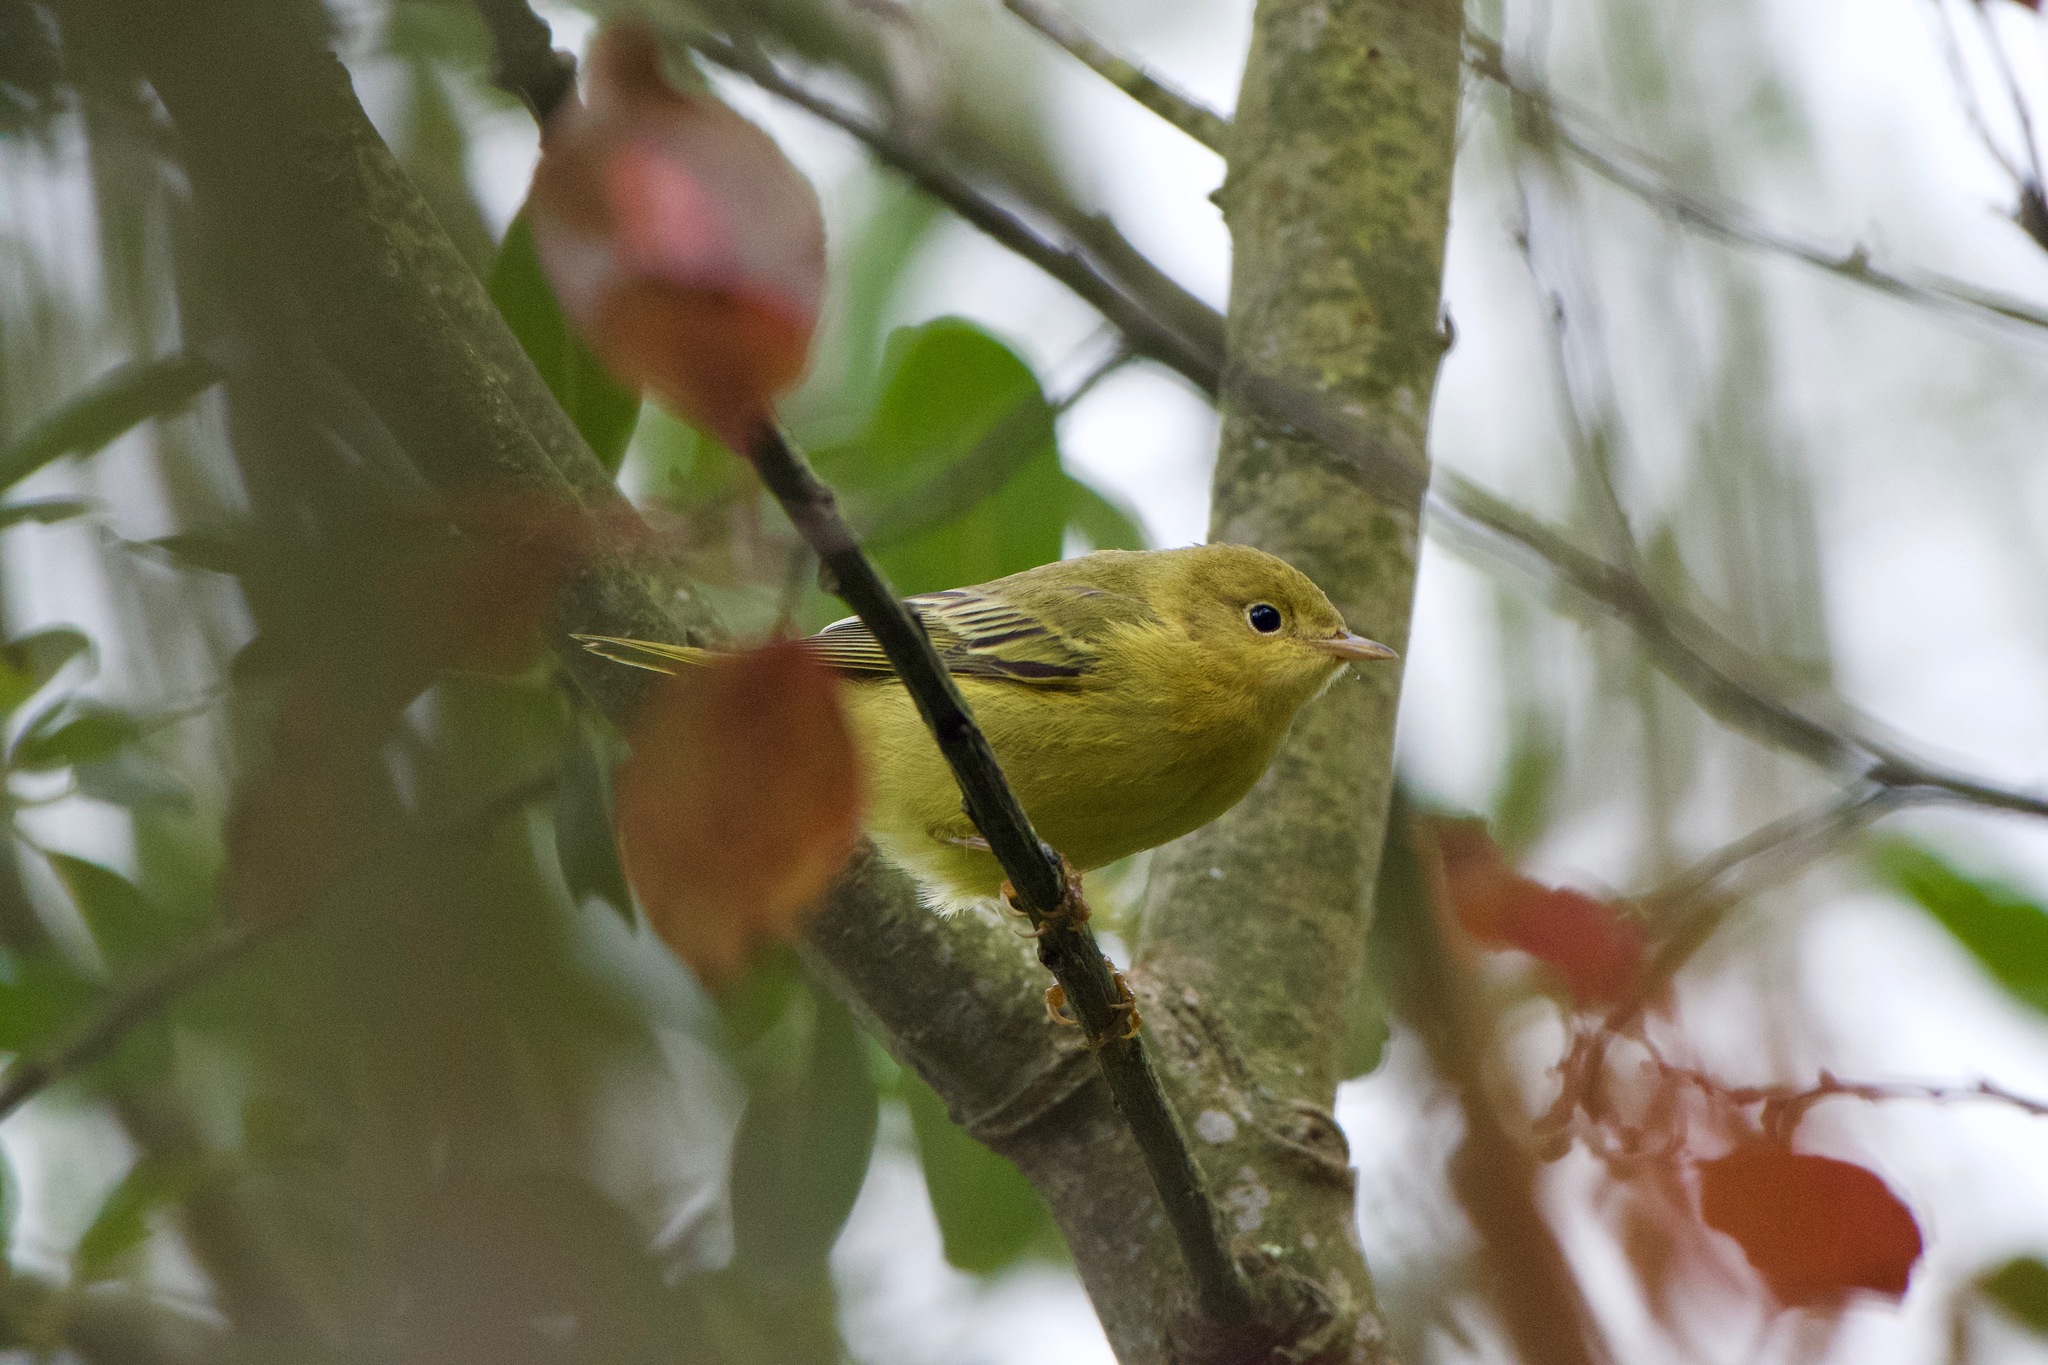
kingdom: Animalia
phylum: Chordata
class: Aves
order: Passeriformes
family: Parulidae
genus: Setophaga
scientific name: Setophaga petechia
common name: Yellow warbler
